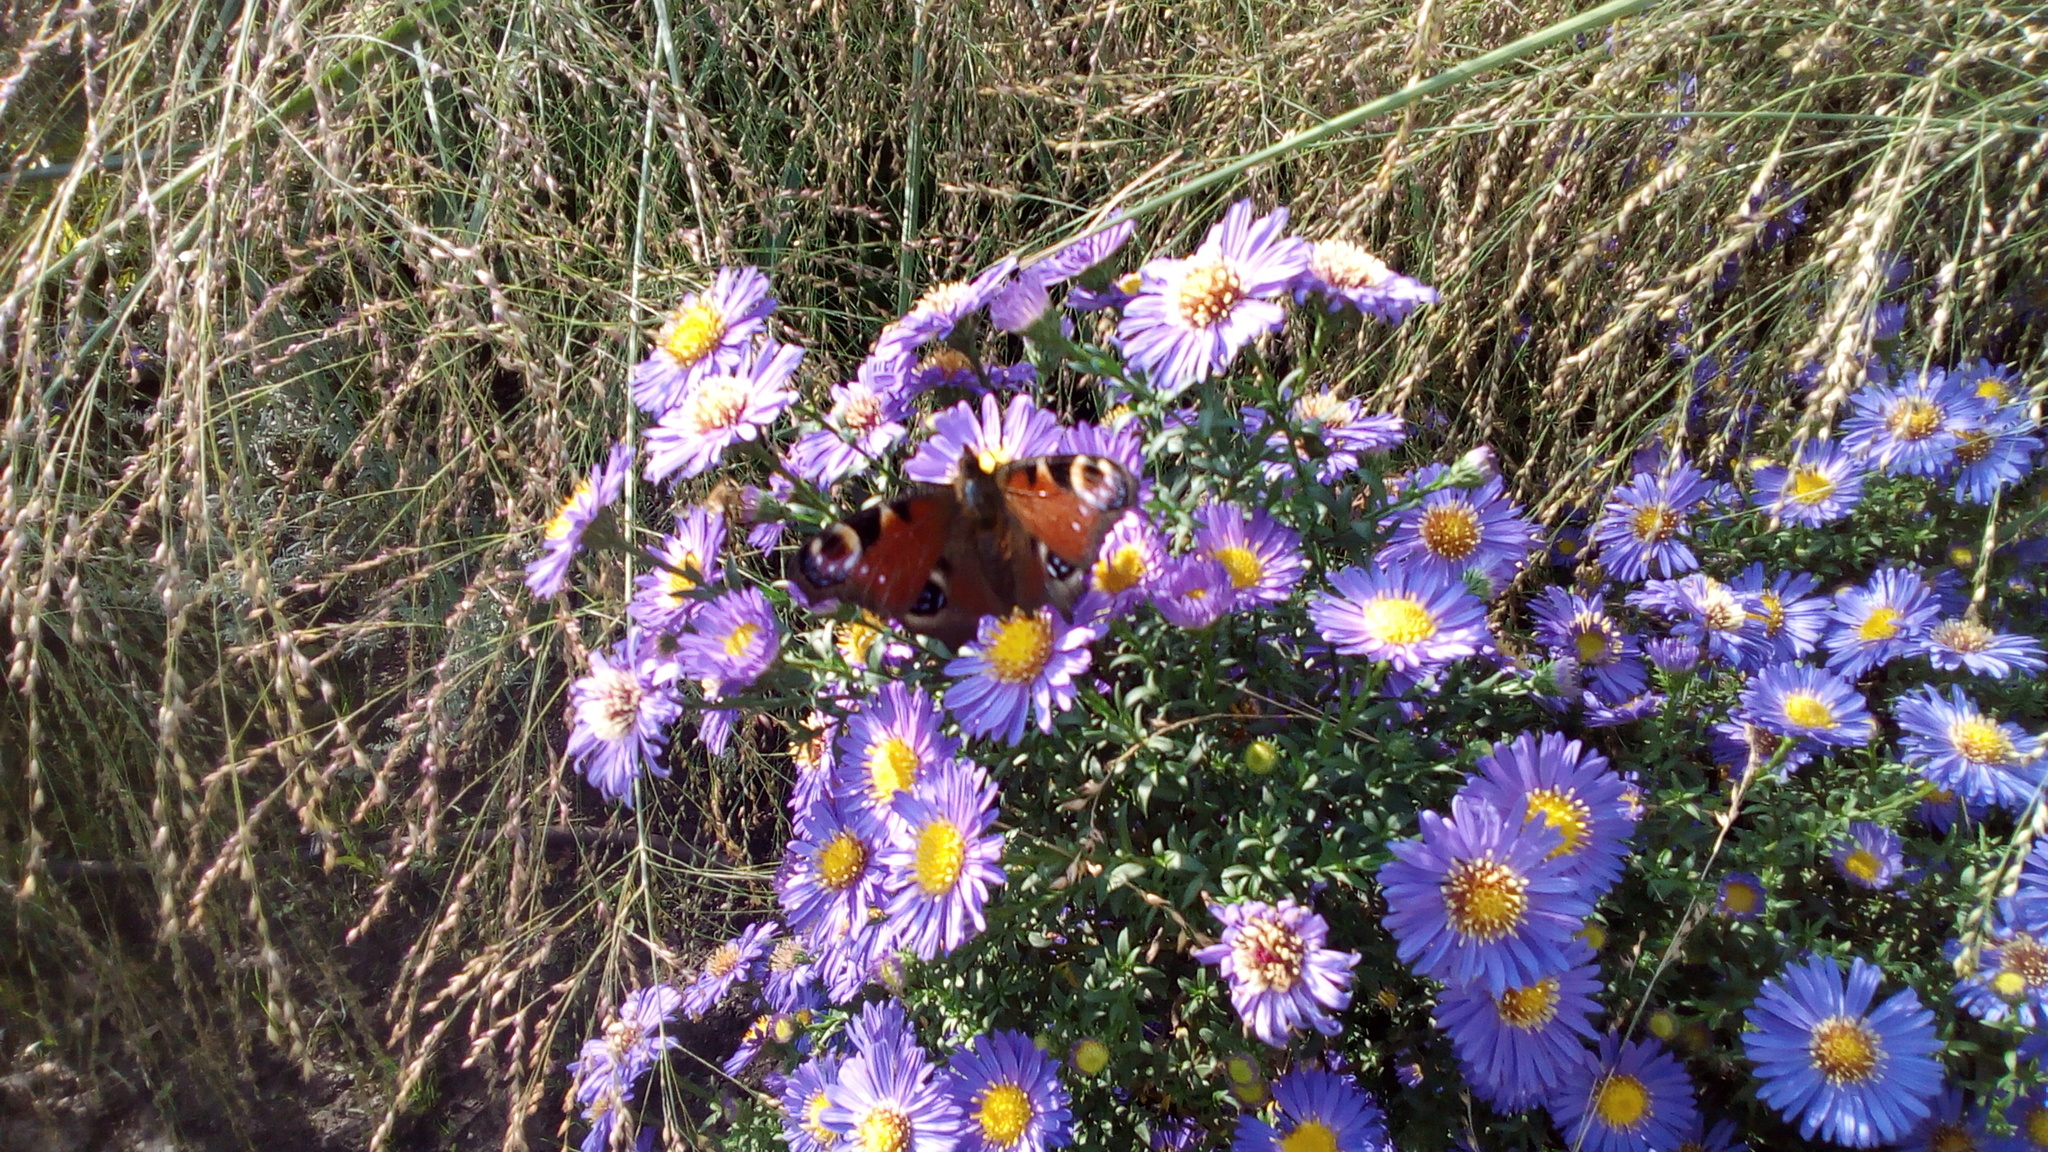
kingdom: Animalia
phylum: Arthropoda
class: Insecta
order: Lepidoptera
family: Nymphalidae
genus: Aglais
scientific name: Aglais io
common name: Peacock
